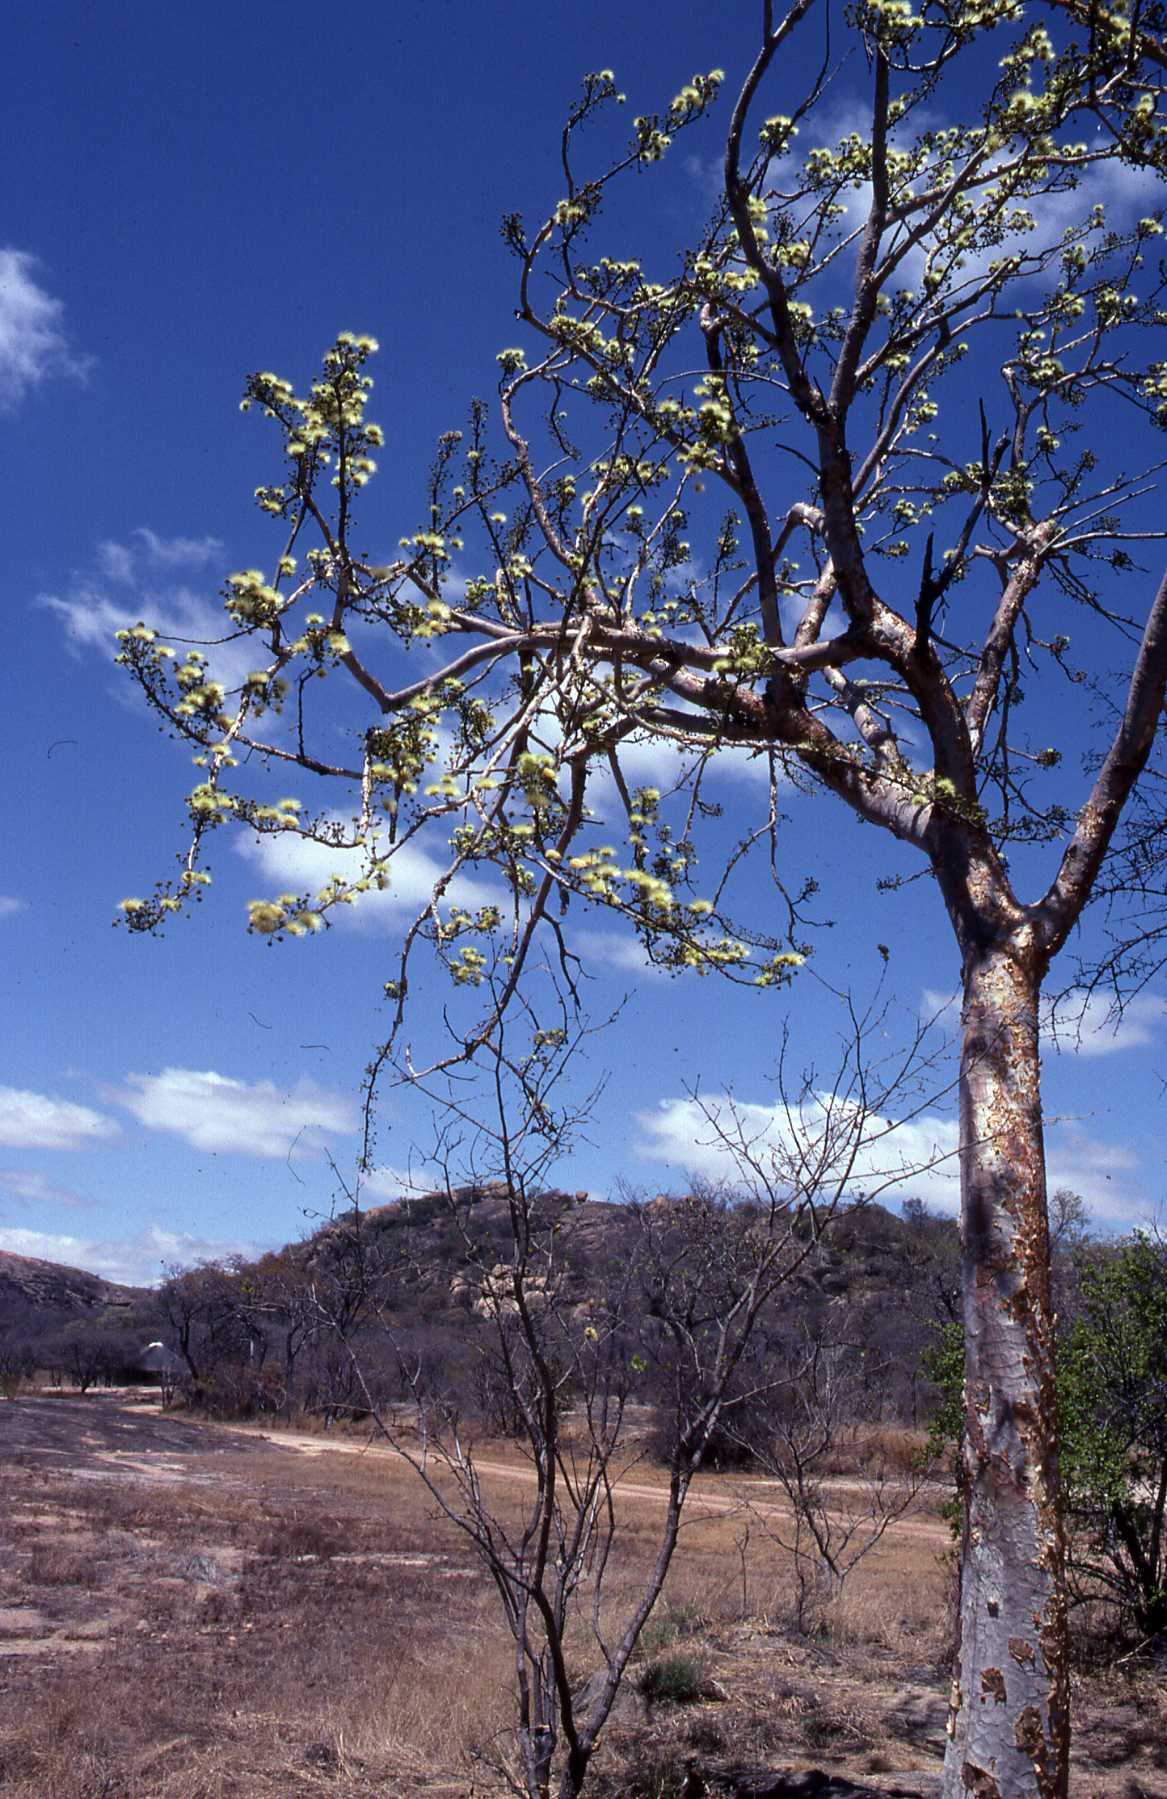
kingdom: Plantae
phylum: Tracheophyta
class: Magnoliopsida
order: Fabales
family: Fabaceae
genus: Albizia
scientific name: Albizia tanganyicensis
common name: Paperbark false thorn
